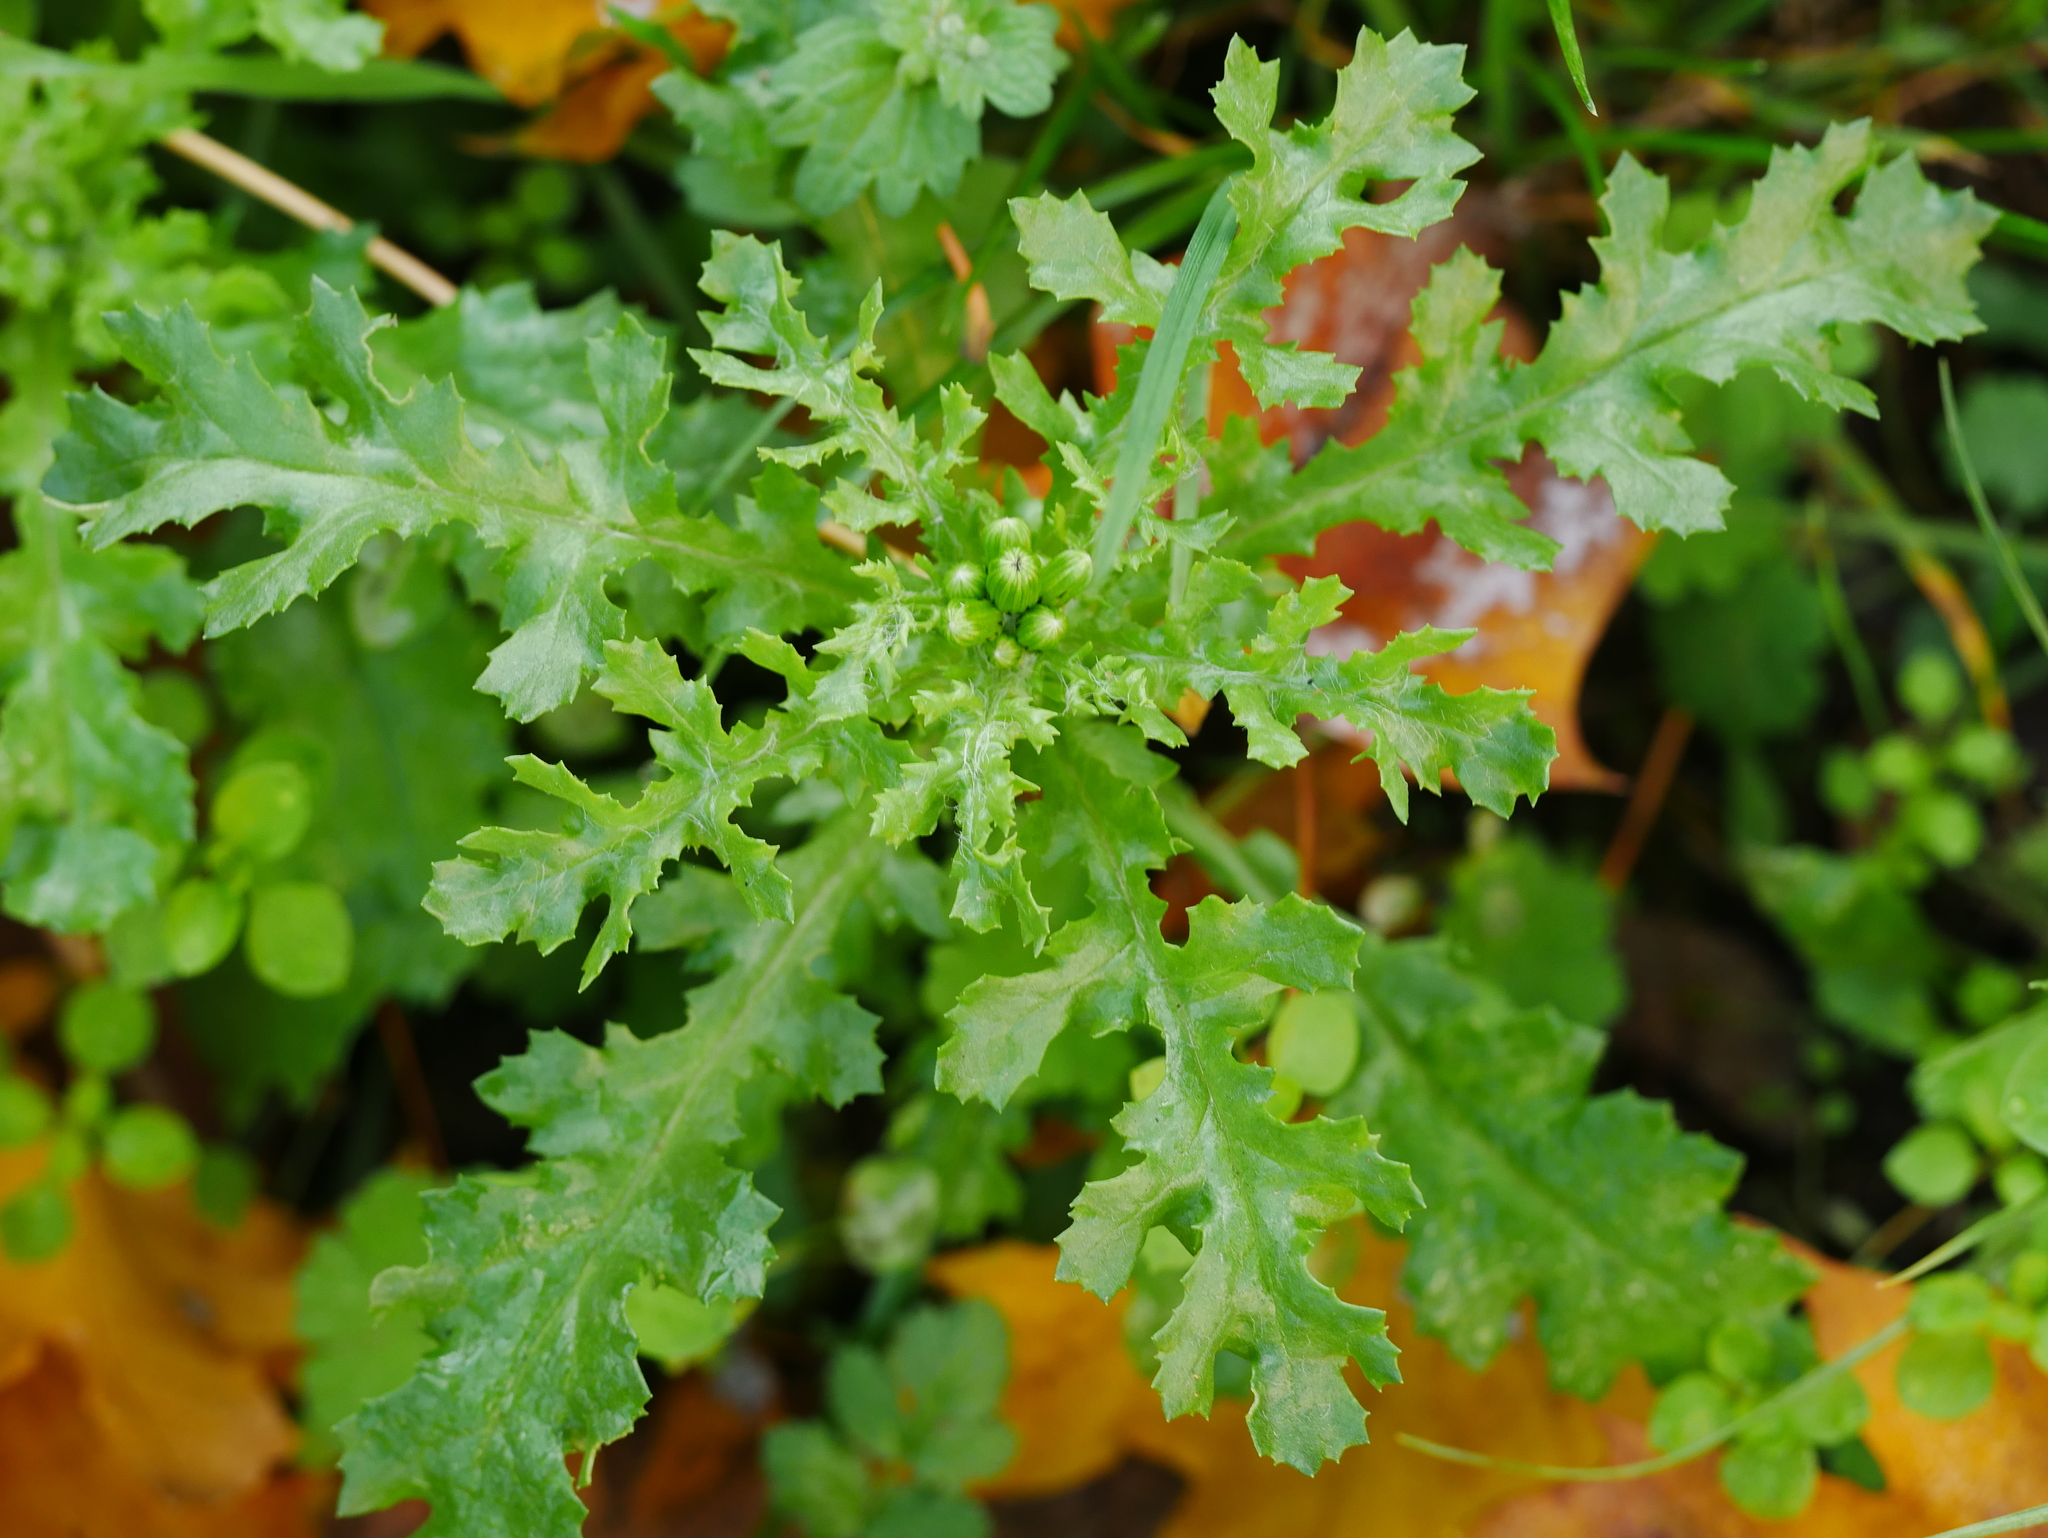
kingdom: Plantae
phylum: Tracheophyta
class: Magnoliopsida
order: Asterales
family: Asteraceae
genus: Senecio
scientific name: Senecio vulgaris
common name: Old-man-in-the-spring
